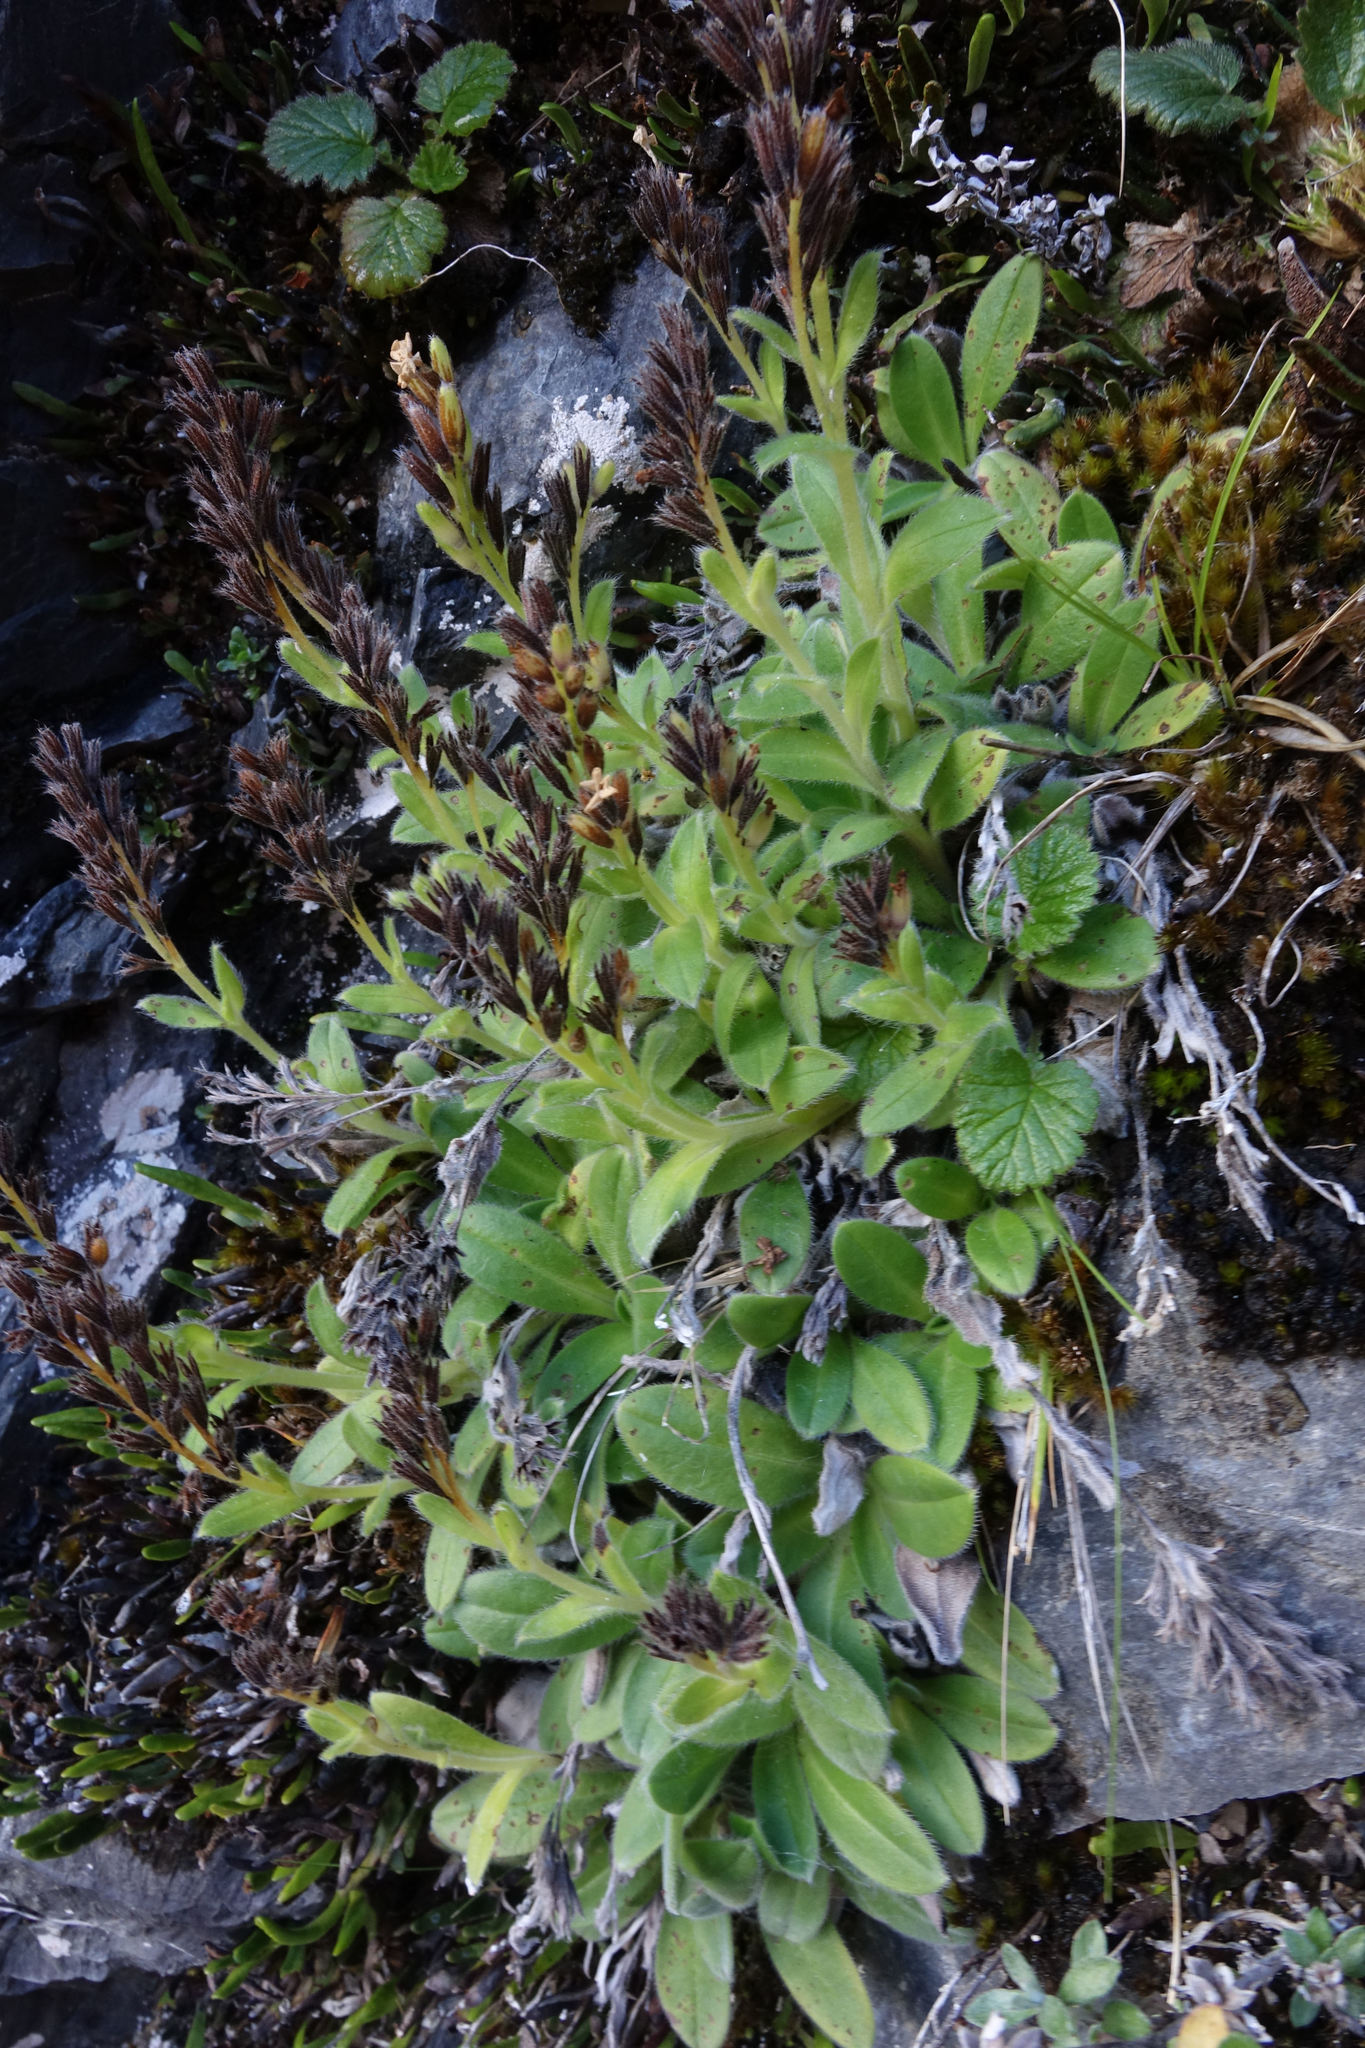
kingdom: Plantae
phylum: Tracheophyta
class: Magnoliopsida
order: Boraginales
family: Boraginaceae
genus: Myosotis
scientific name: Myosotis suavis
